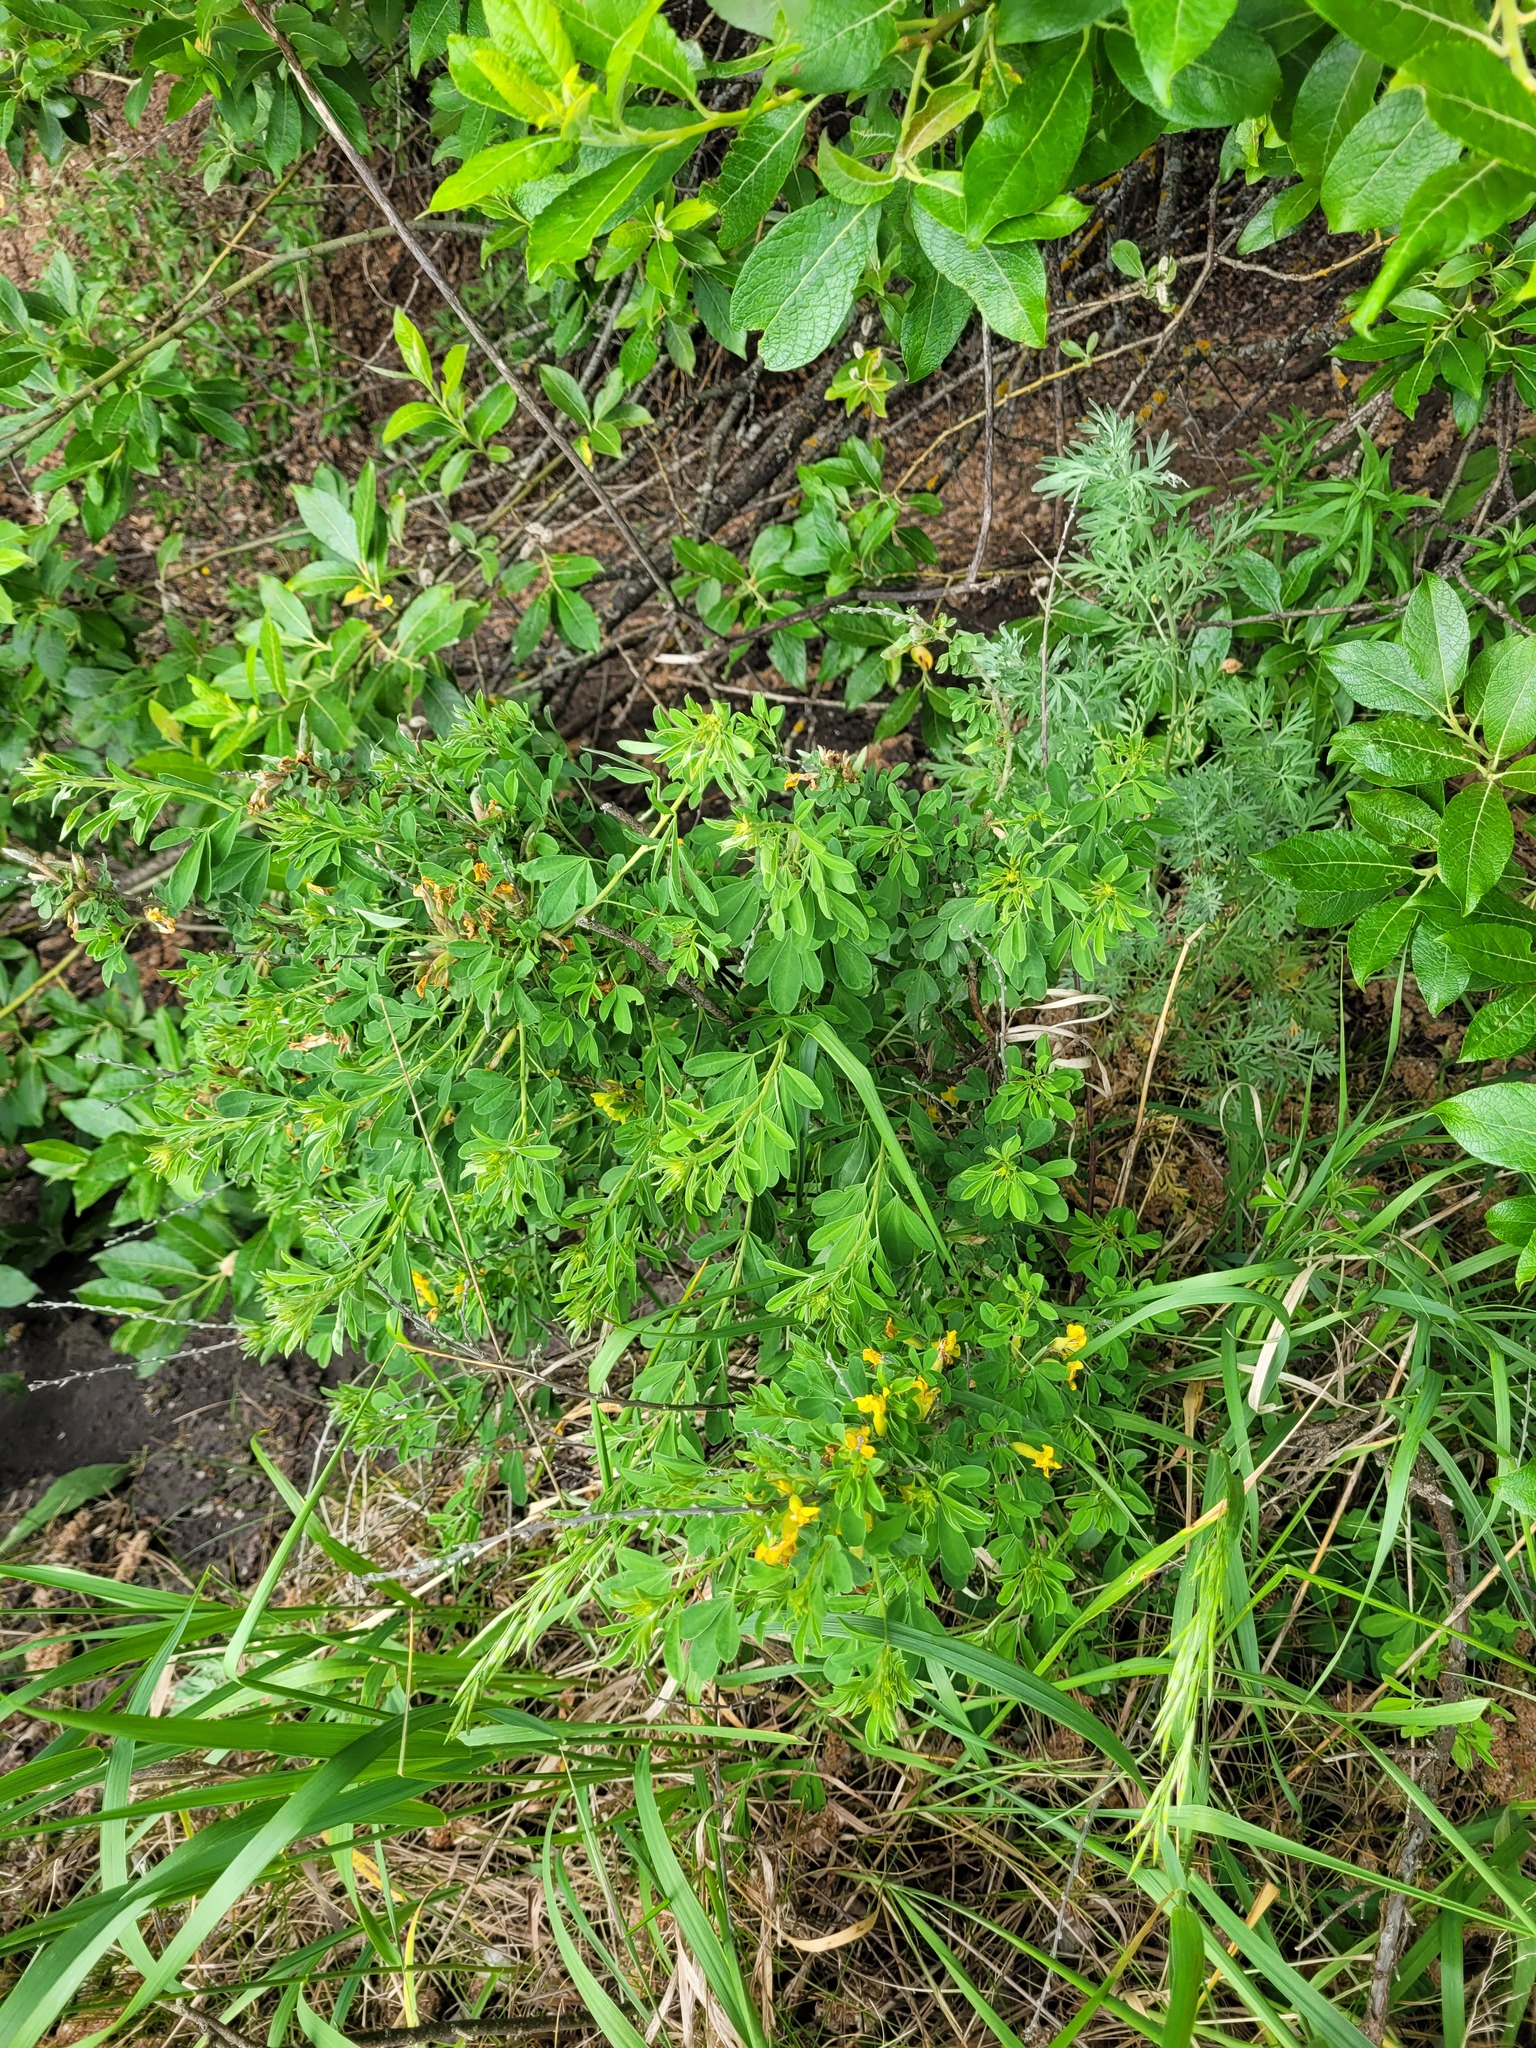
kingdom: Plantae
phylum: Tracheophyta
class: Magnoliopsida
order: Fabales
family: Fabaceae
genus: Chamaecytisus
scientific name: Chamaecytisus ruthenicus
